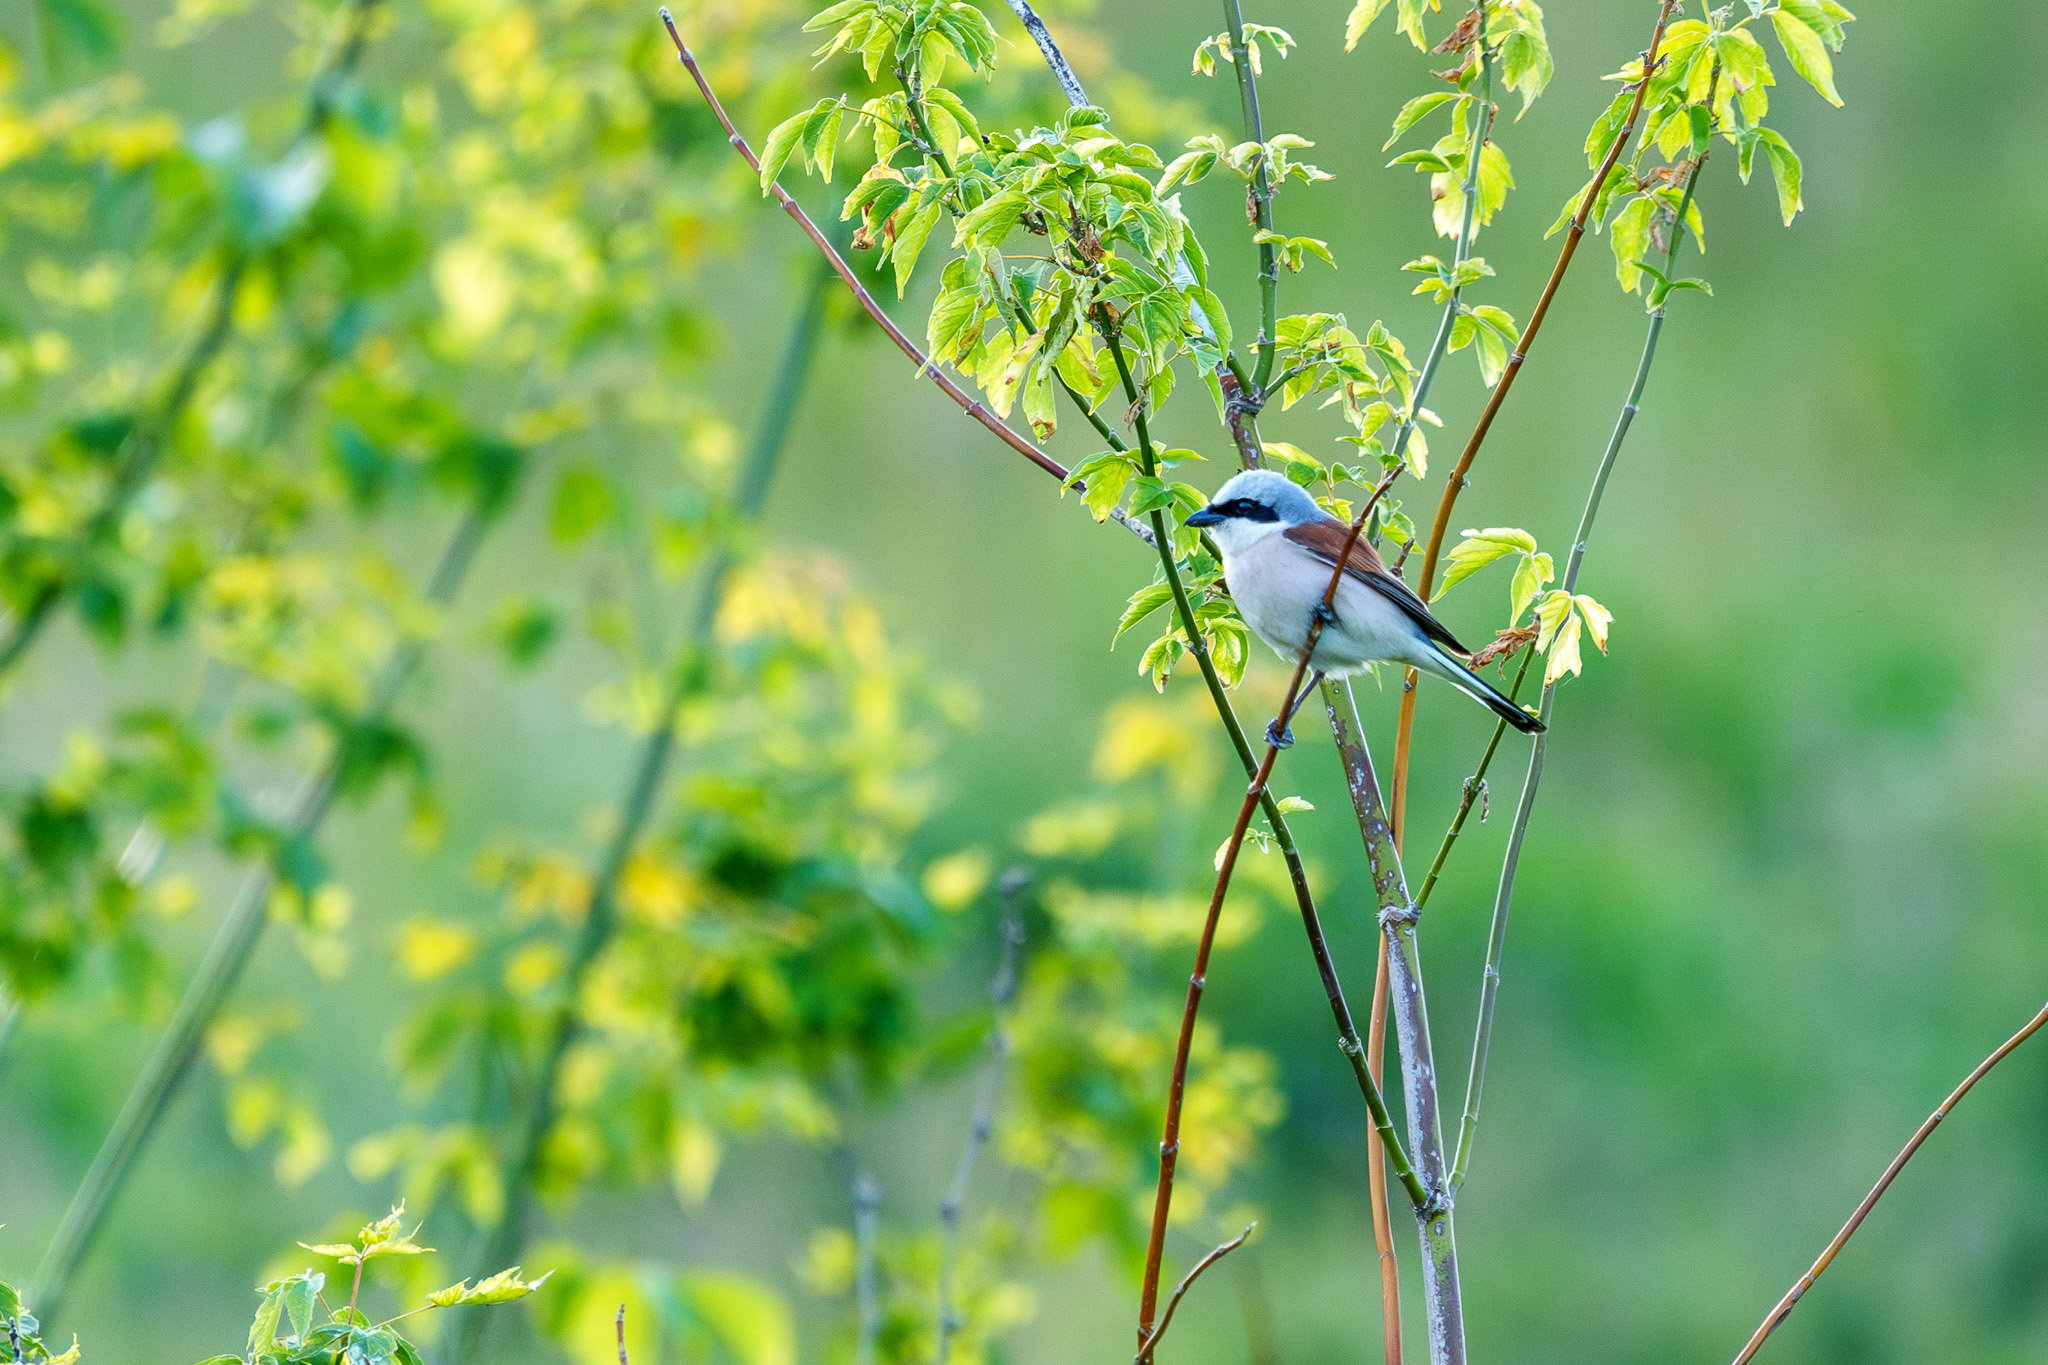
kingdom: Animalia
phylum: Chordata
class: Aves
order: Passeriformes
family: Laniidae
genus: Lanius
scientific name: Lanius collurio
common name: Red-backed shrike
